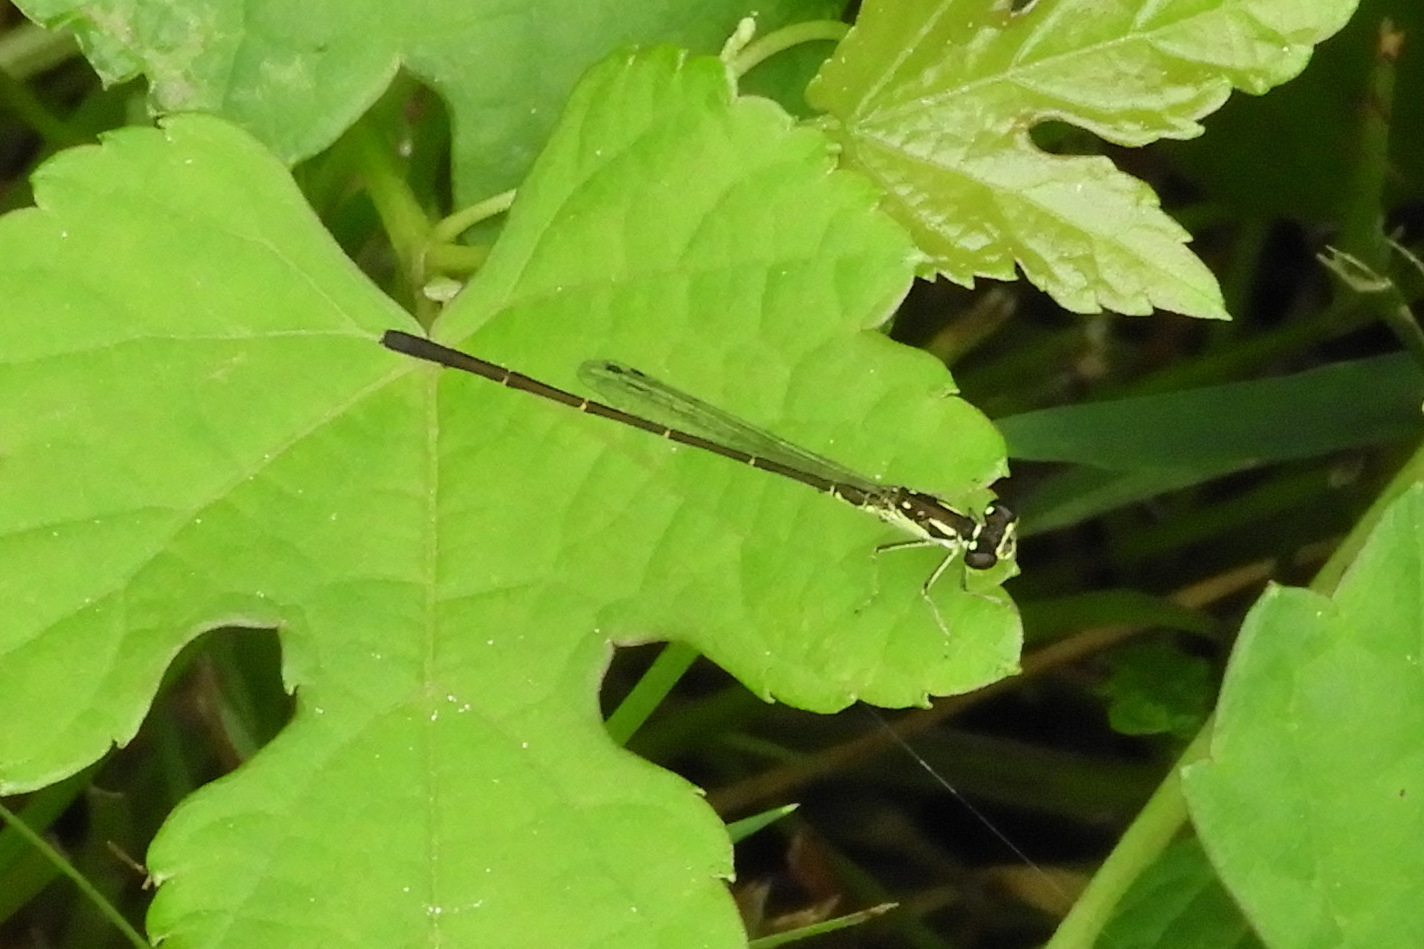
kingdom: Animalia
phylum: Arthropoda
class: Insecta
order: Odonata
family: Coenagrionidae
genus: Ischnura
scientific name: Ischnura posita
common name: Fragile forktail
